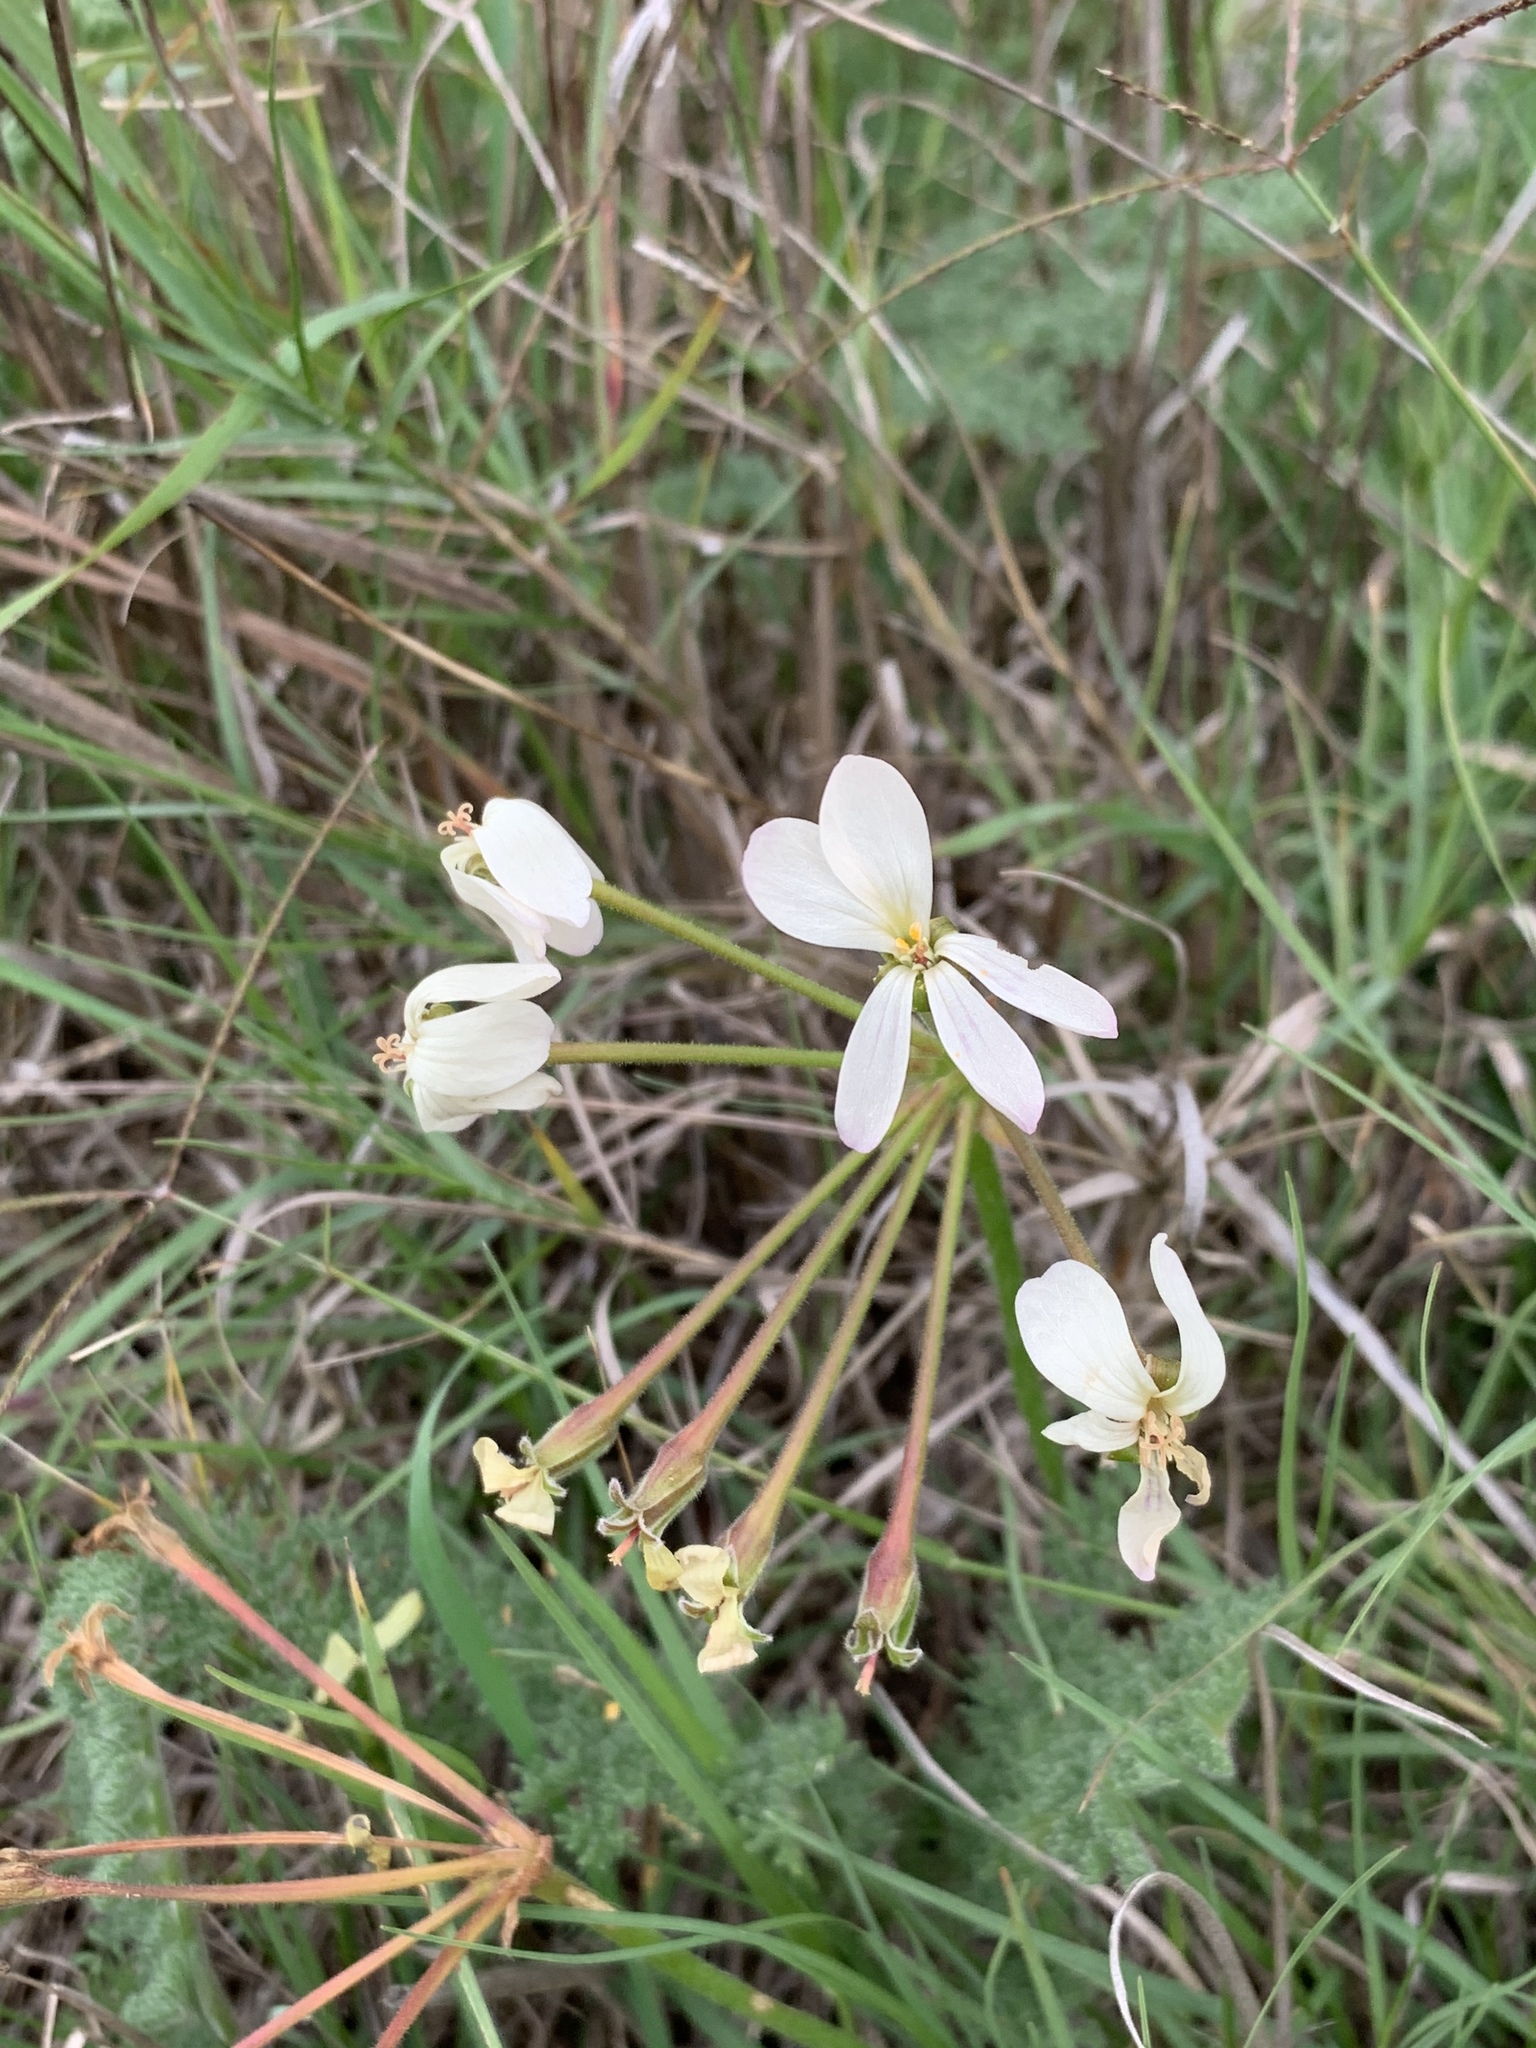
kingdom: Plantae
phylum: Tracheophyta
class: Magnoliopsida
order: Geraniales
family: Geraniaceae
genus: Pelargonium
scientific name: Pelargonium triste
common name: Night-scent pelargonium
